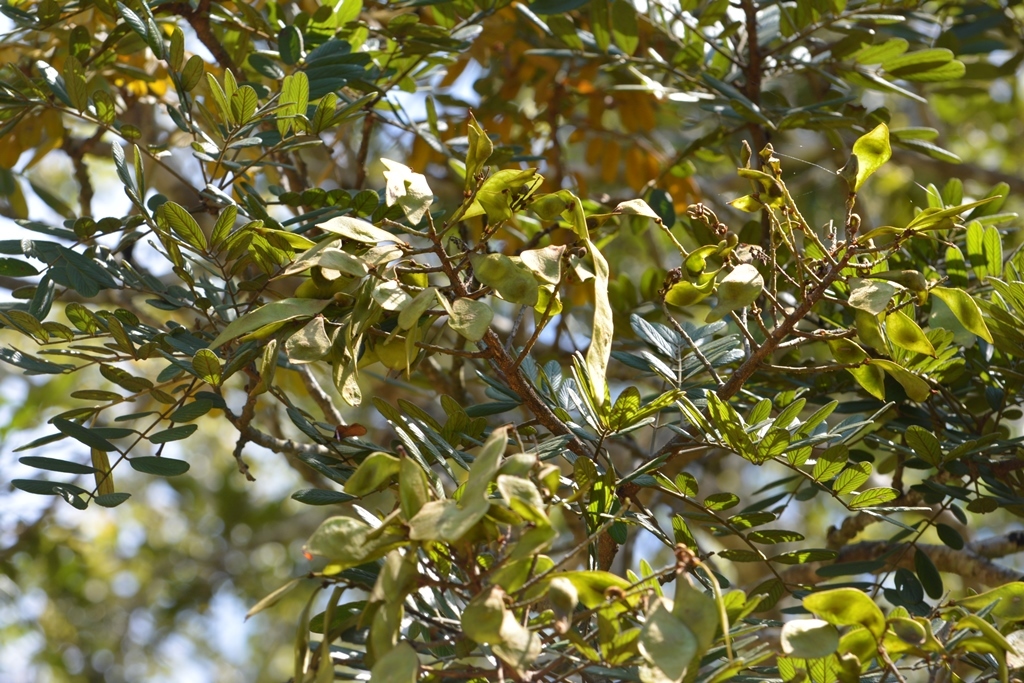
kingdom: Plantae
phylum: Tracheophyta
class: Magnoliopsida
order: Fabales
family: Fabaceae
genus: Lonchocarpus
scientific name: Lonchocarpus rugosus
